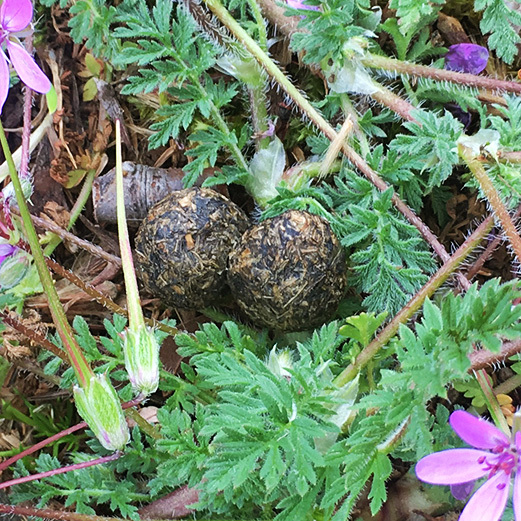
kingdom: Plantae
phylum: Tracheophyta
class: Magnoliopsida
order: Geraniales
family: Geraniaceae
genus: Erodium
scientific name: Erodium cicutarium
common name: Common stork's-bill
